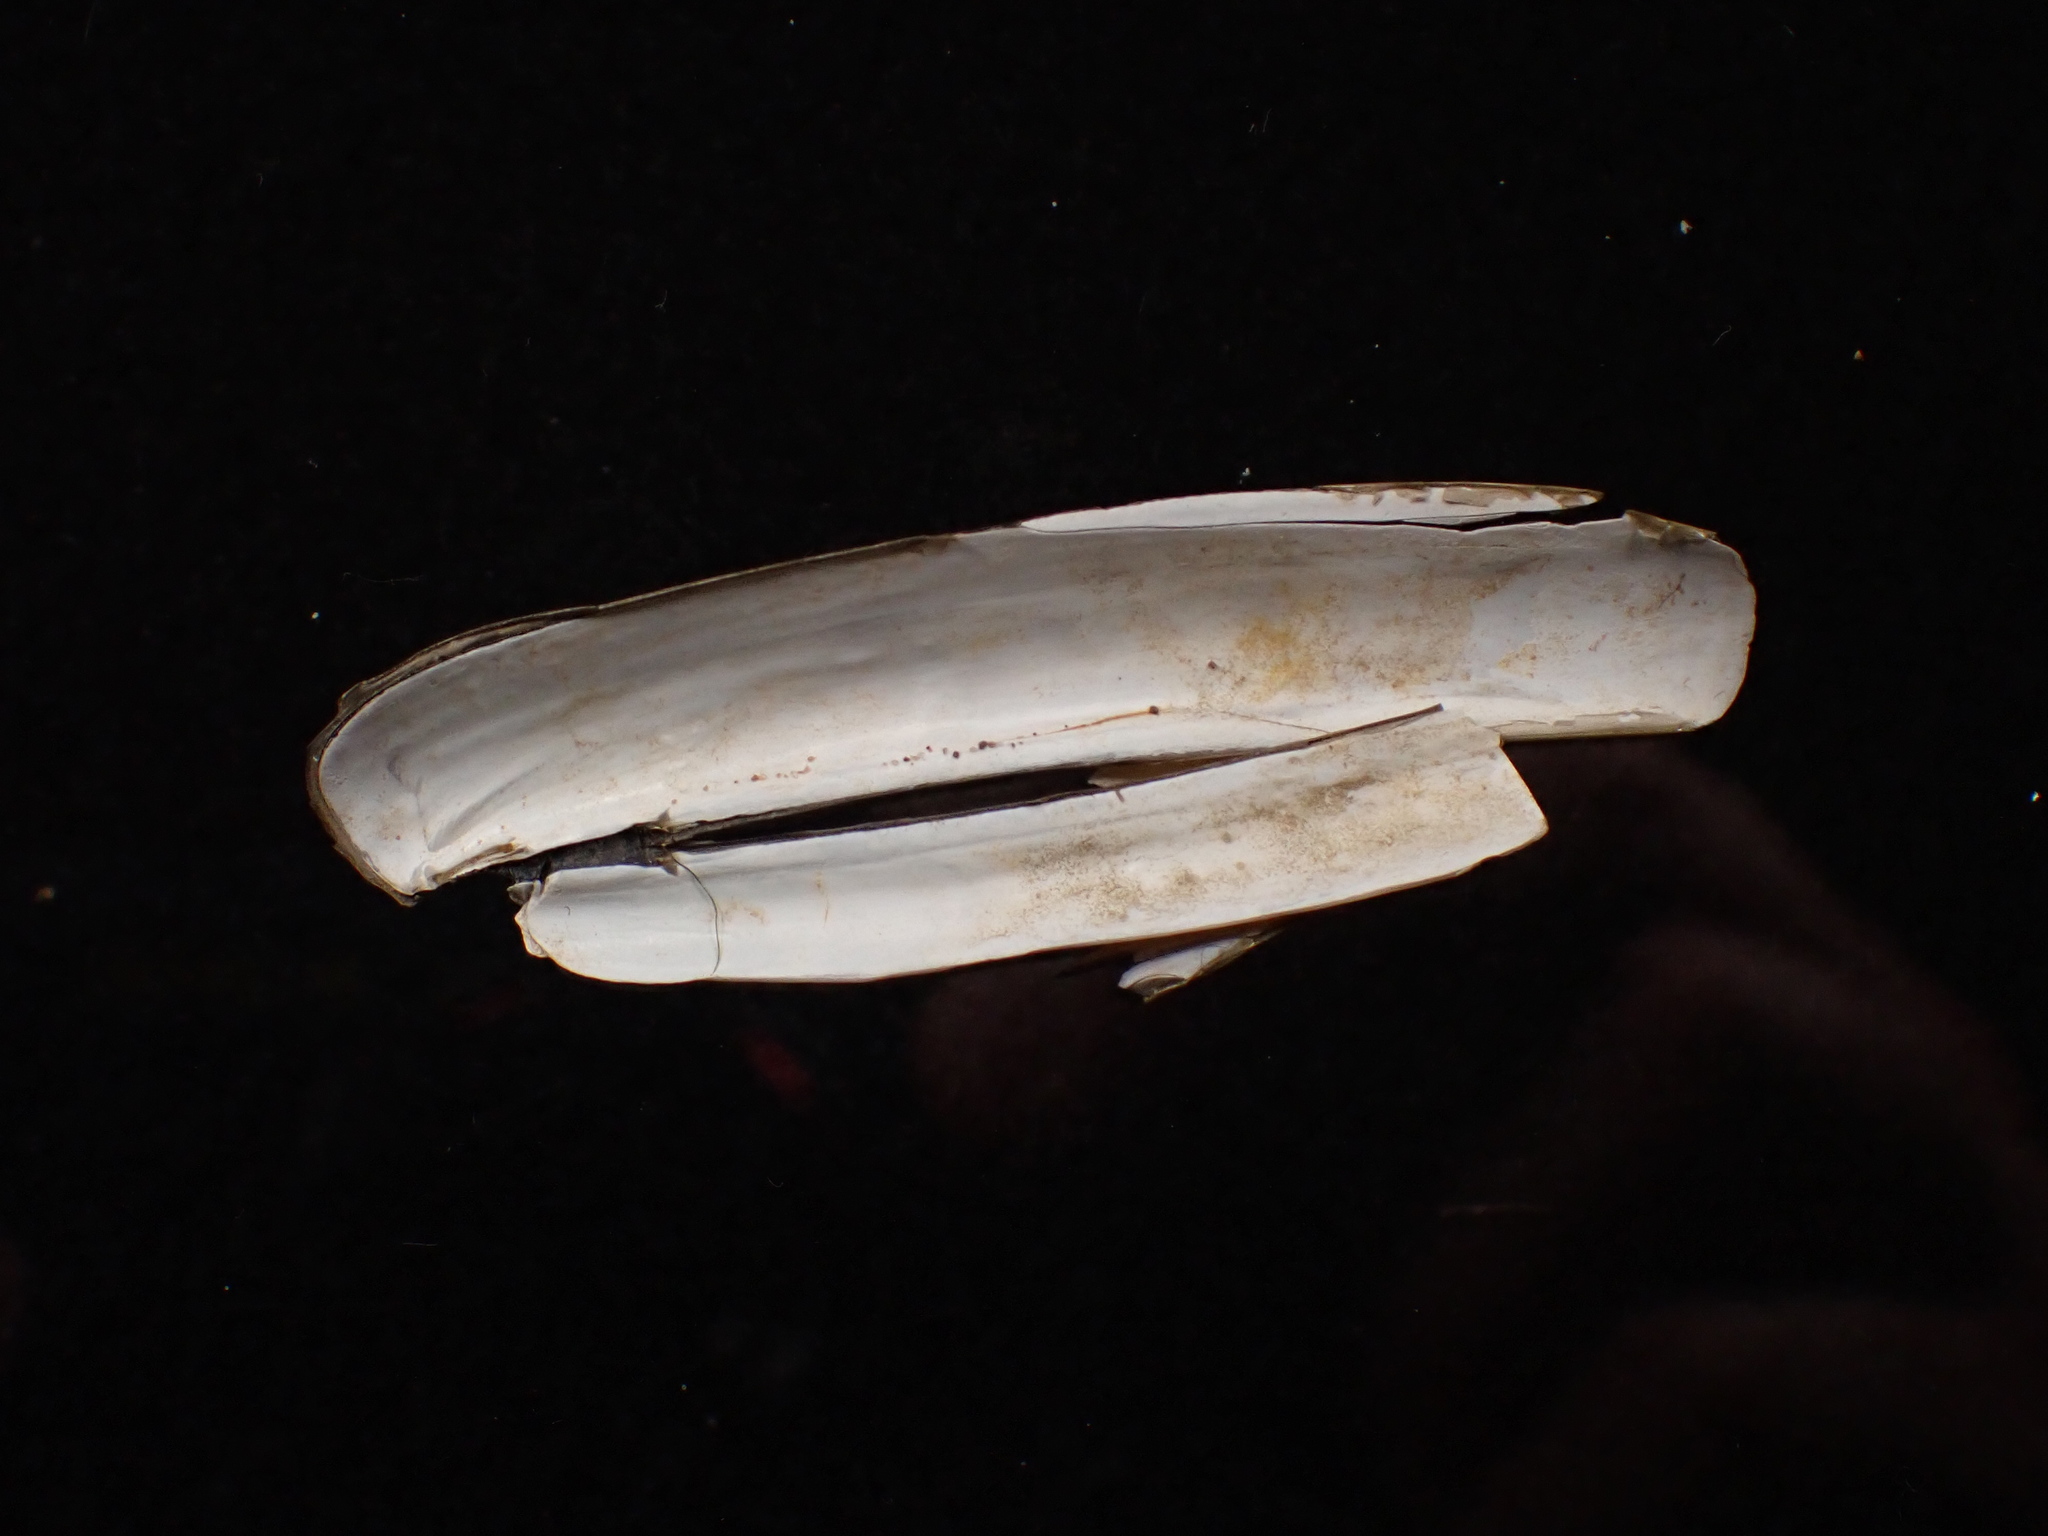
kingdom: Animalia
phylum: Mollusca
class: Bivalvia
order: Adapedonta
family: Pharidae
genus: Ensis
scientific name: Ensis leei
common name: American jack knife clam
